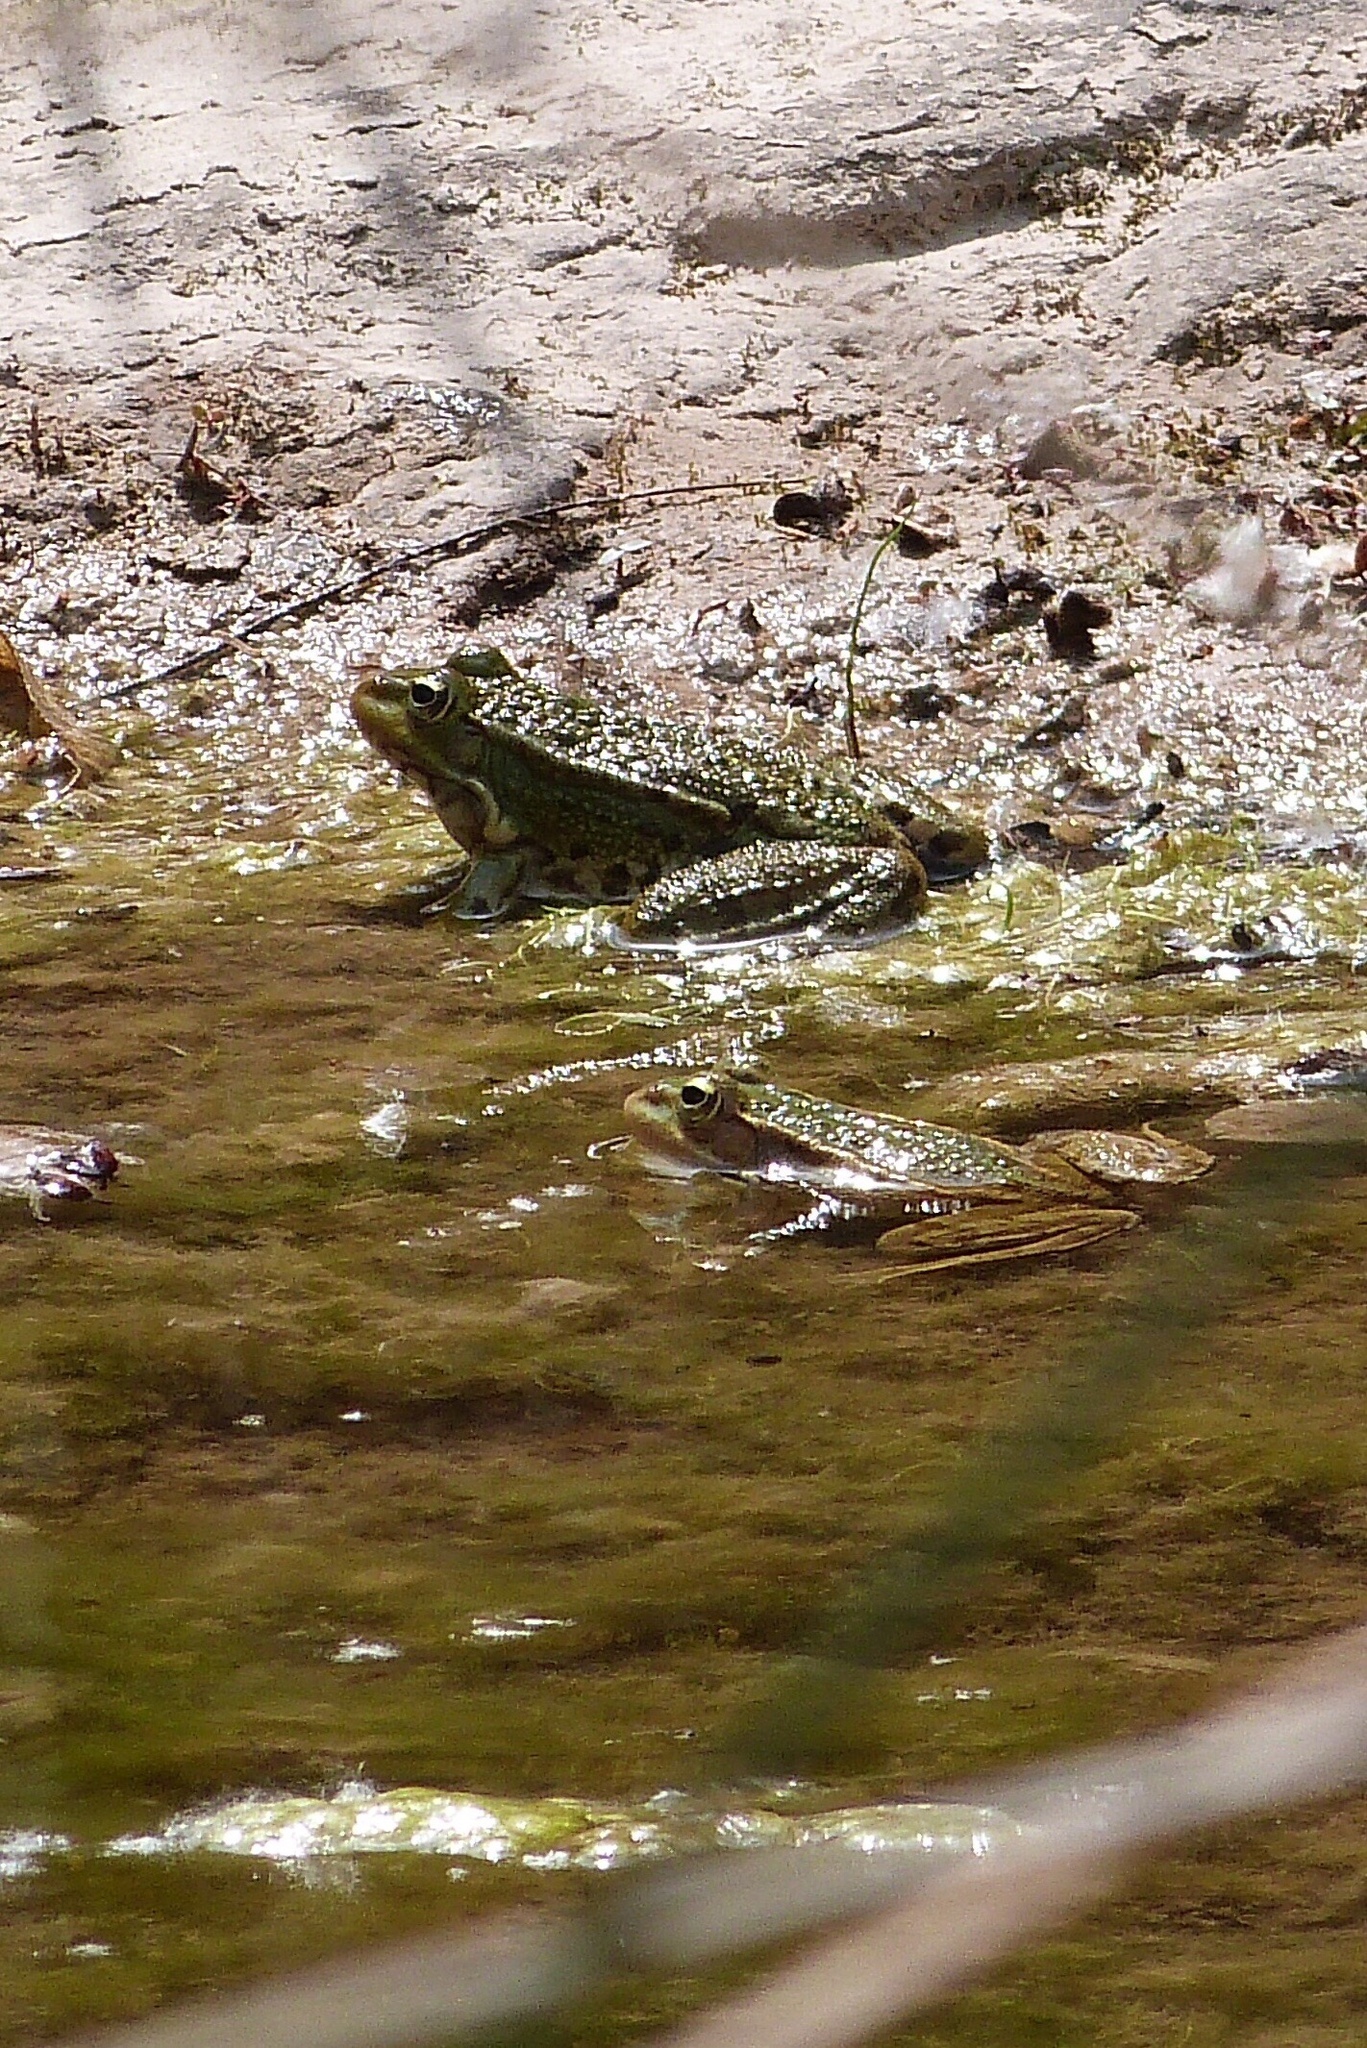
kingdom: Animalia
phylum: Chordata
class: Amphibia
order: Anura
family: Ranidae
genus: Pelophylax
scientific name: Pelophylax perezi
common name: Perez's frog
